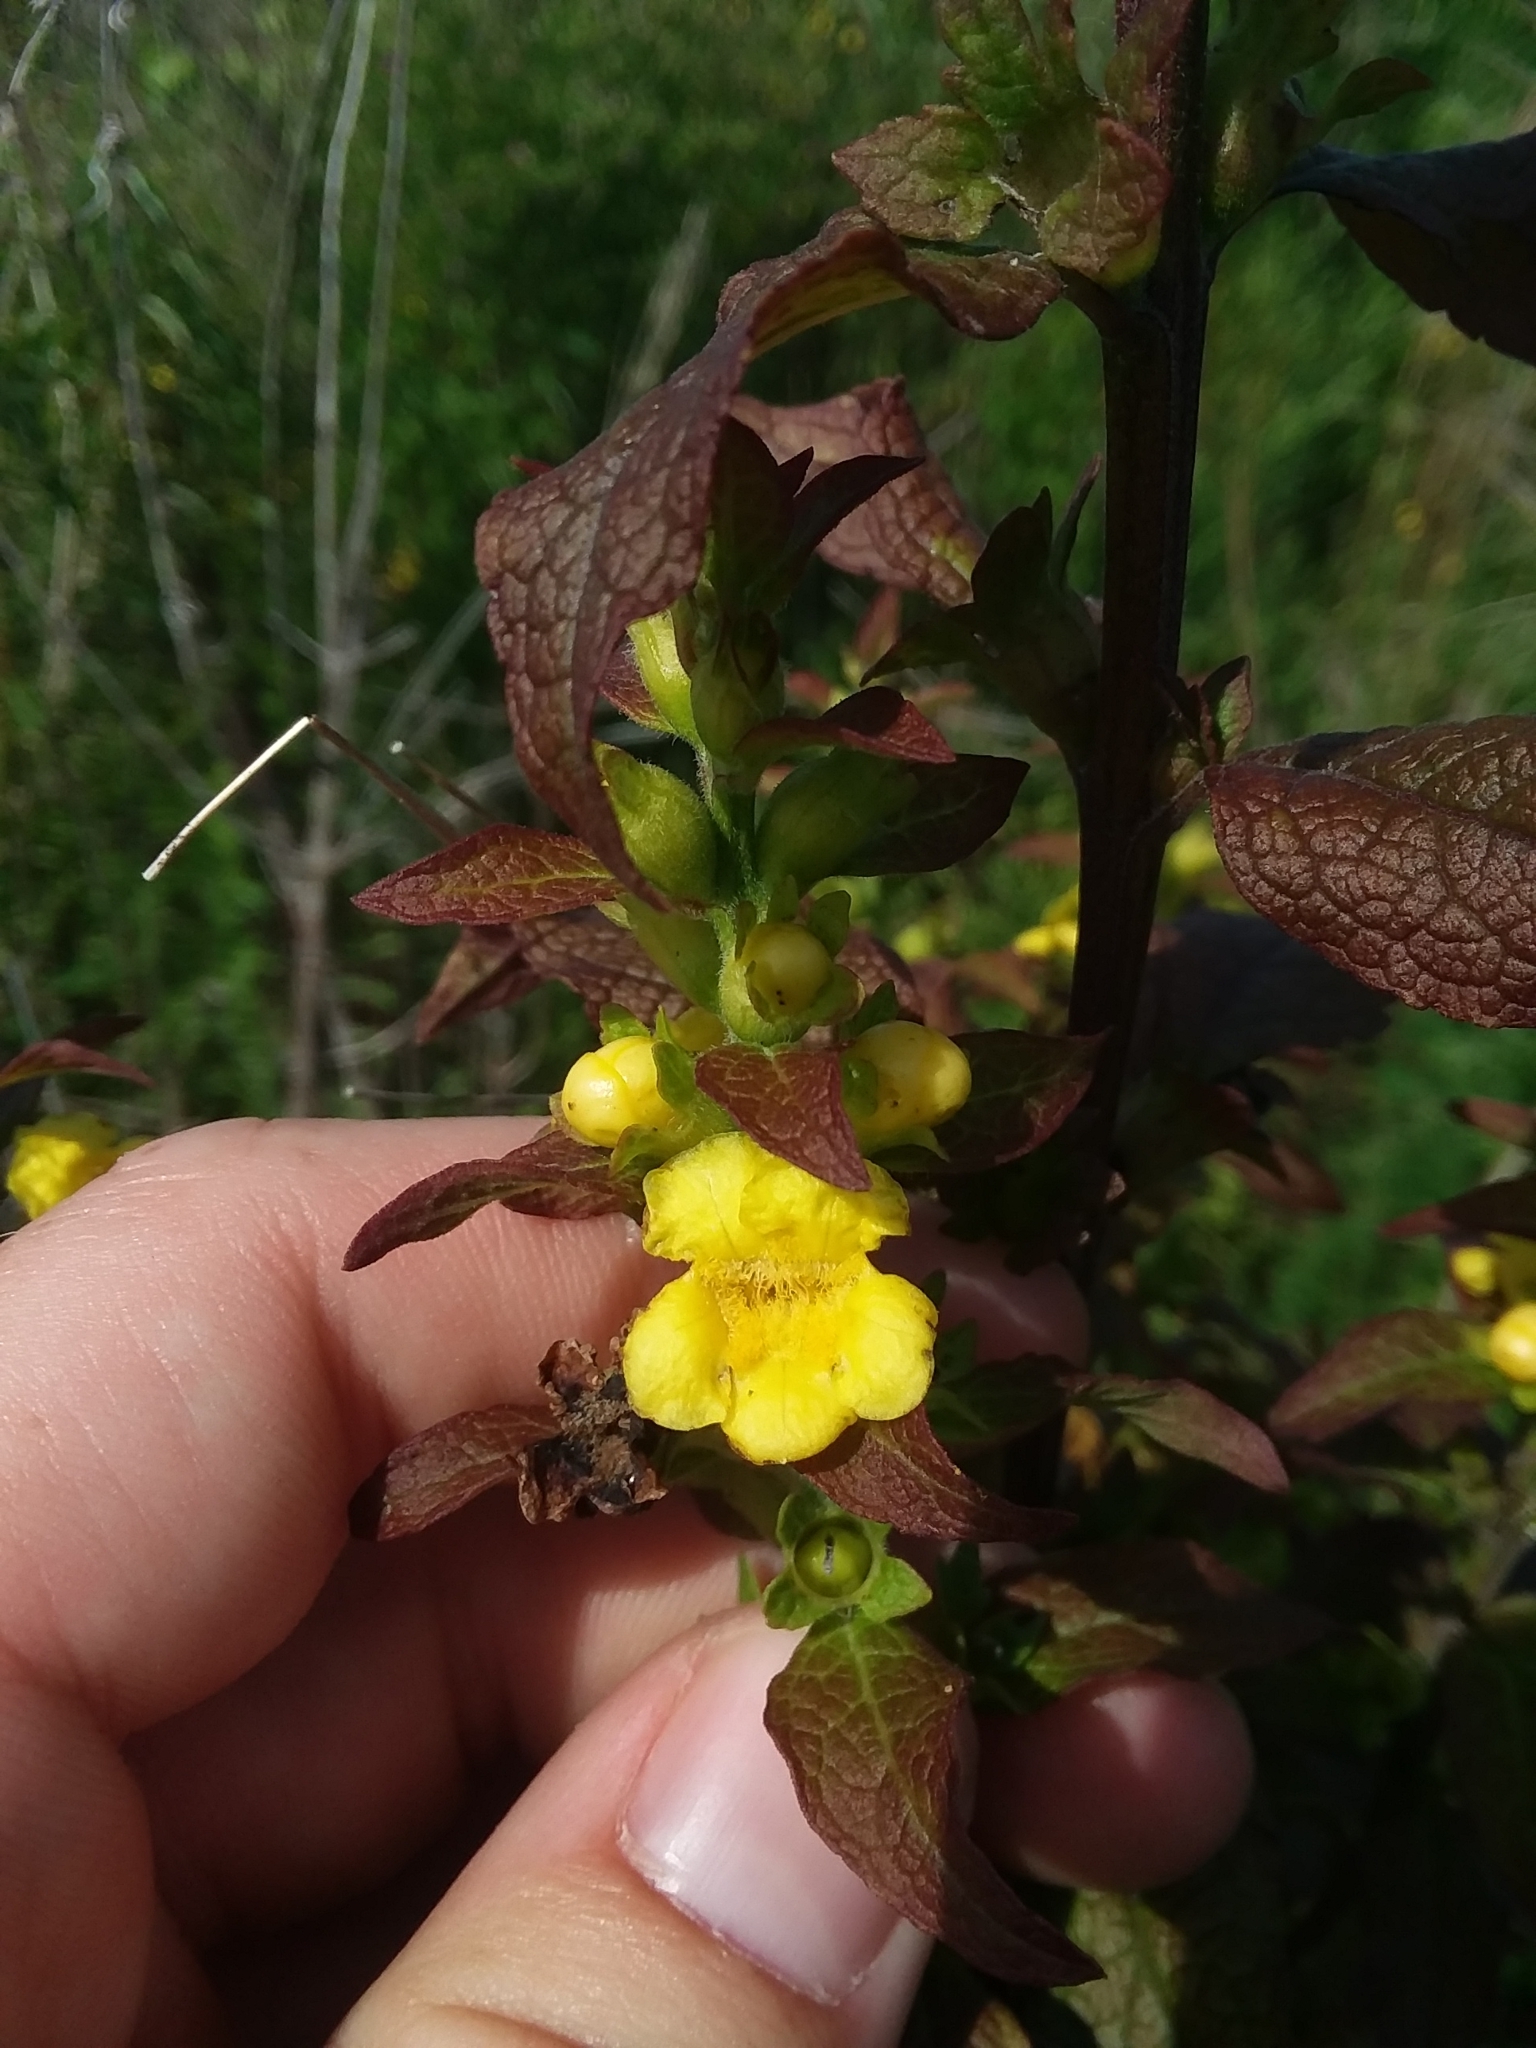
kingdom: Plantae
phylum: Tracheophyta
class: Magnoliopsida
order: Lamiales
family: Orobanchaceae
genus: Dasistoma
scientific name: Dasistoma macrophyllum
